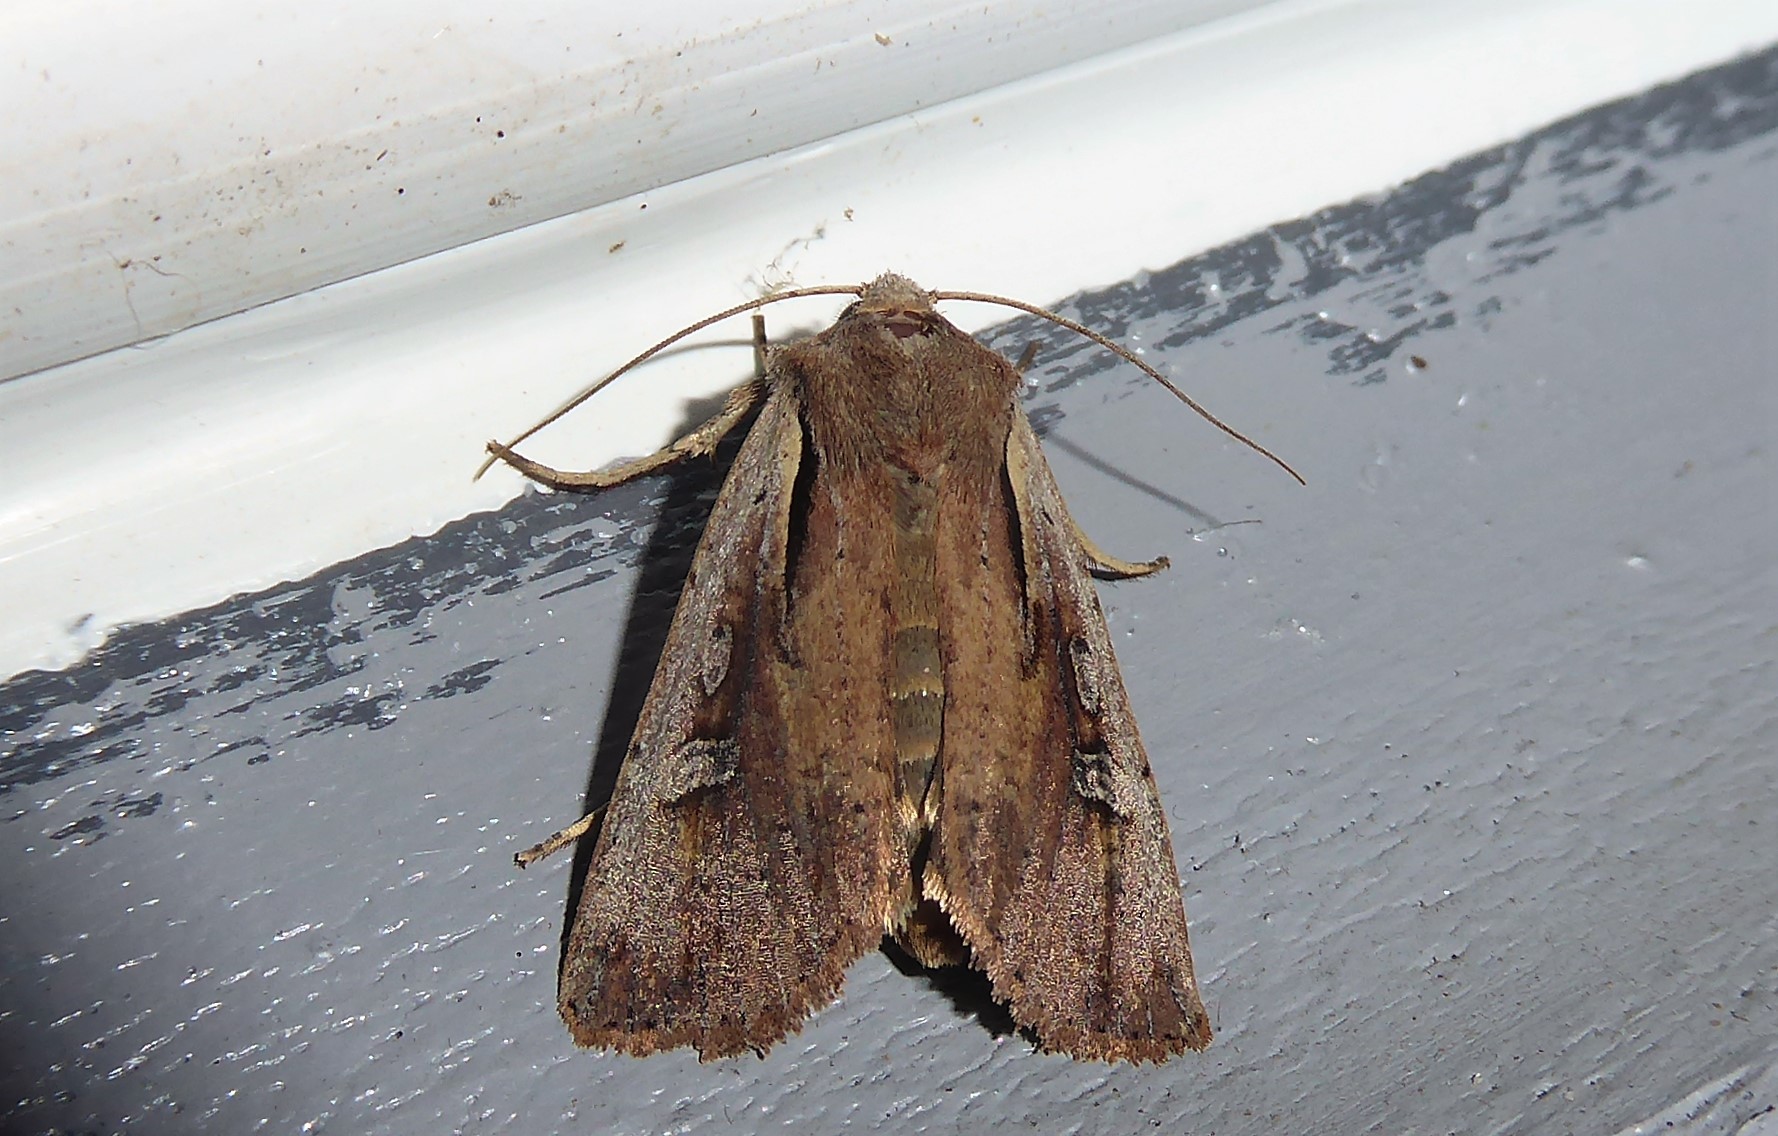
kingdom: Animalia
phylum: Arthropoda
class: Insecta
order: Lepidoptera
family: Noctuidae
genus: Ichneutica
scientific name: Ichneutica atristriga
